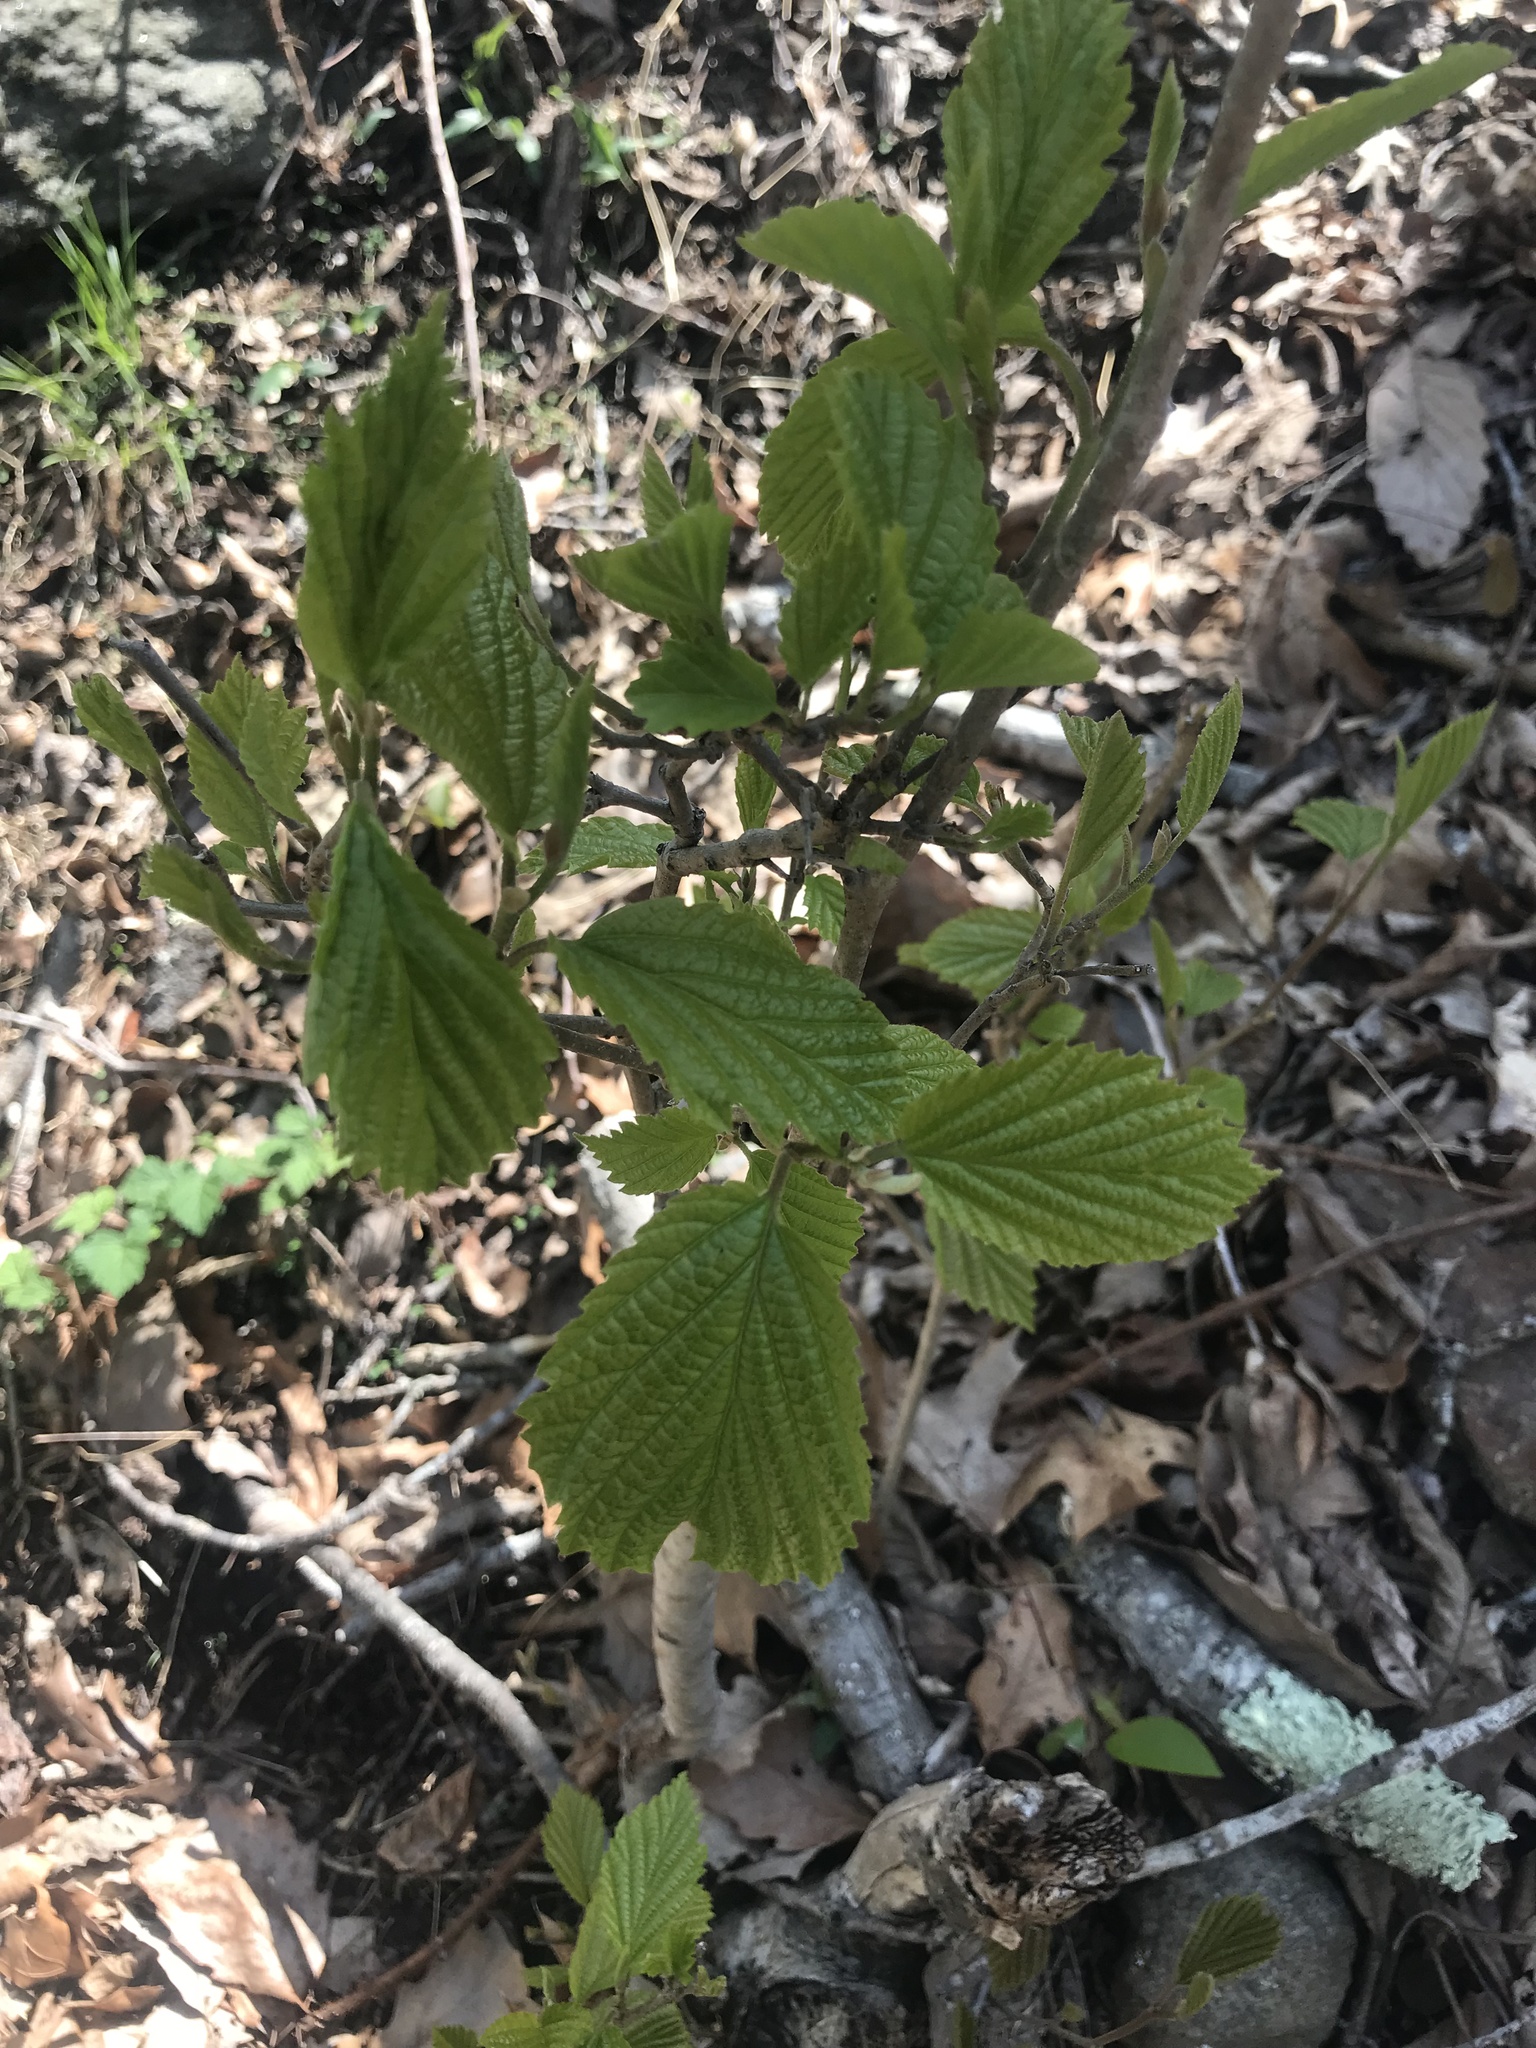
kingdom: Plantae
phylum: Tracheophyta
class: Magnoliopsida
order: Dipsacales
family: Viburnaceae
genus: Viburnum
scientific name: Viburnum dentatum
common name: Arrow-wood
